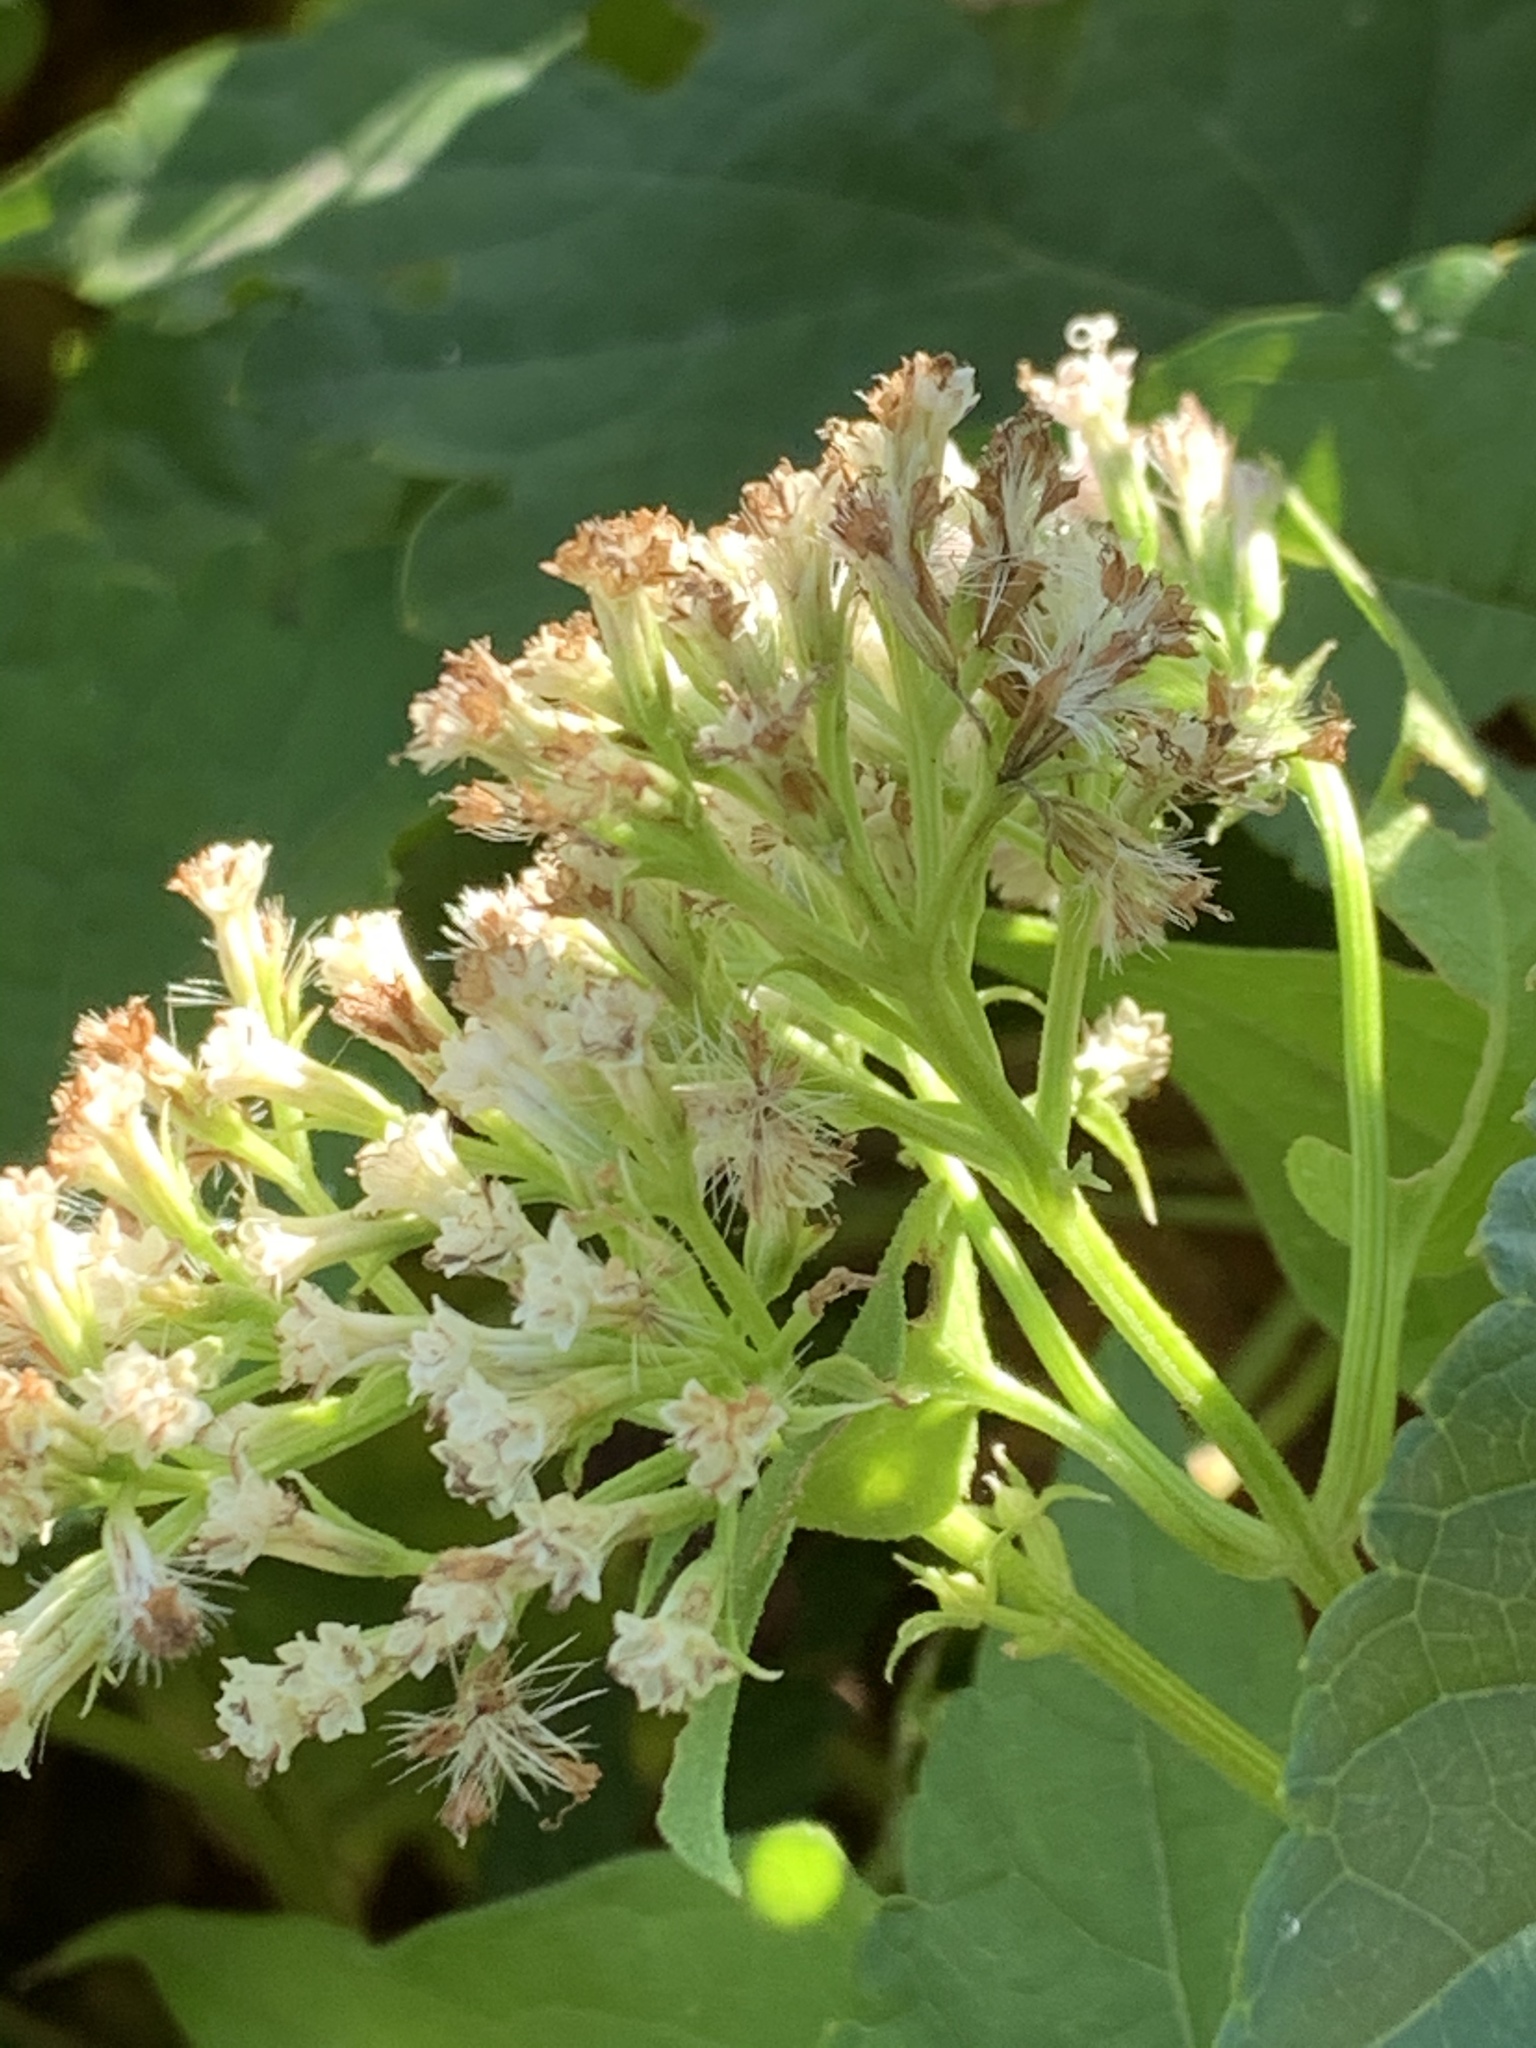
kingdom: Plantae
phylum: Tracheophyta
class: Magnoliopsida
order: Asterales
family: Asteraceae
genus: Mikania
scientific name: Mikania scandens
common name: Climbing hempvine
